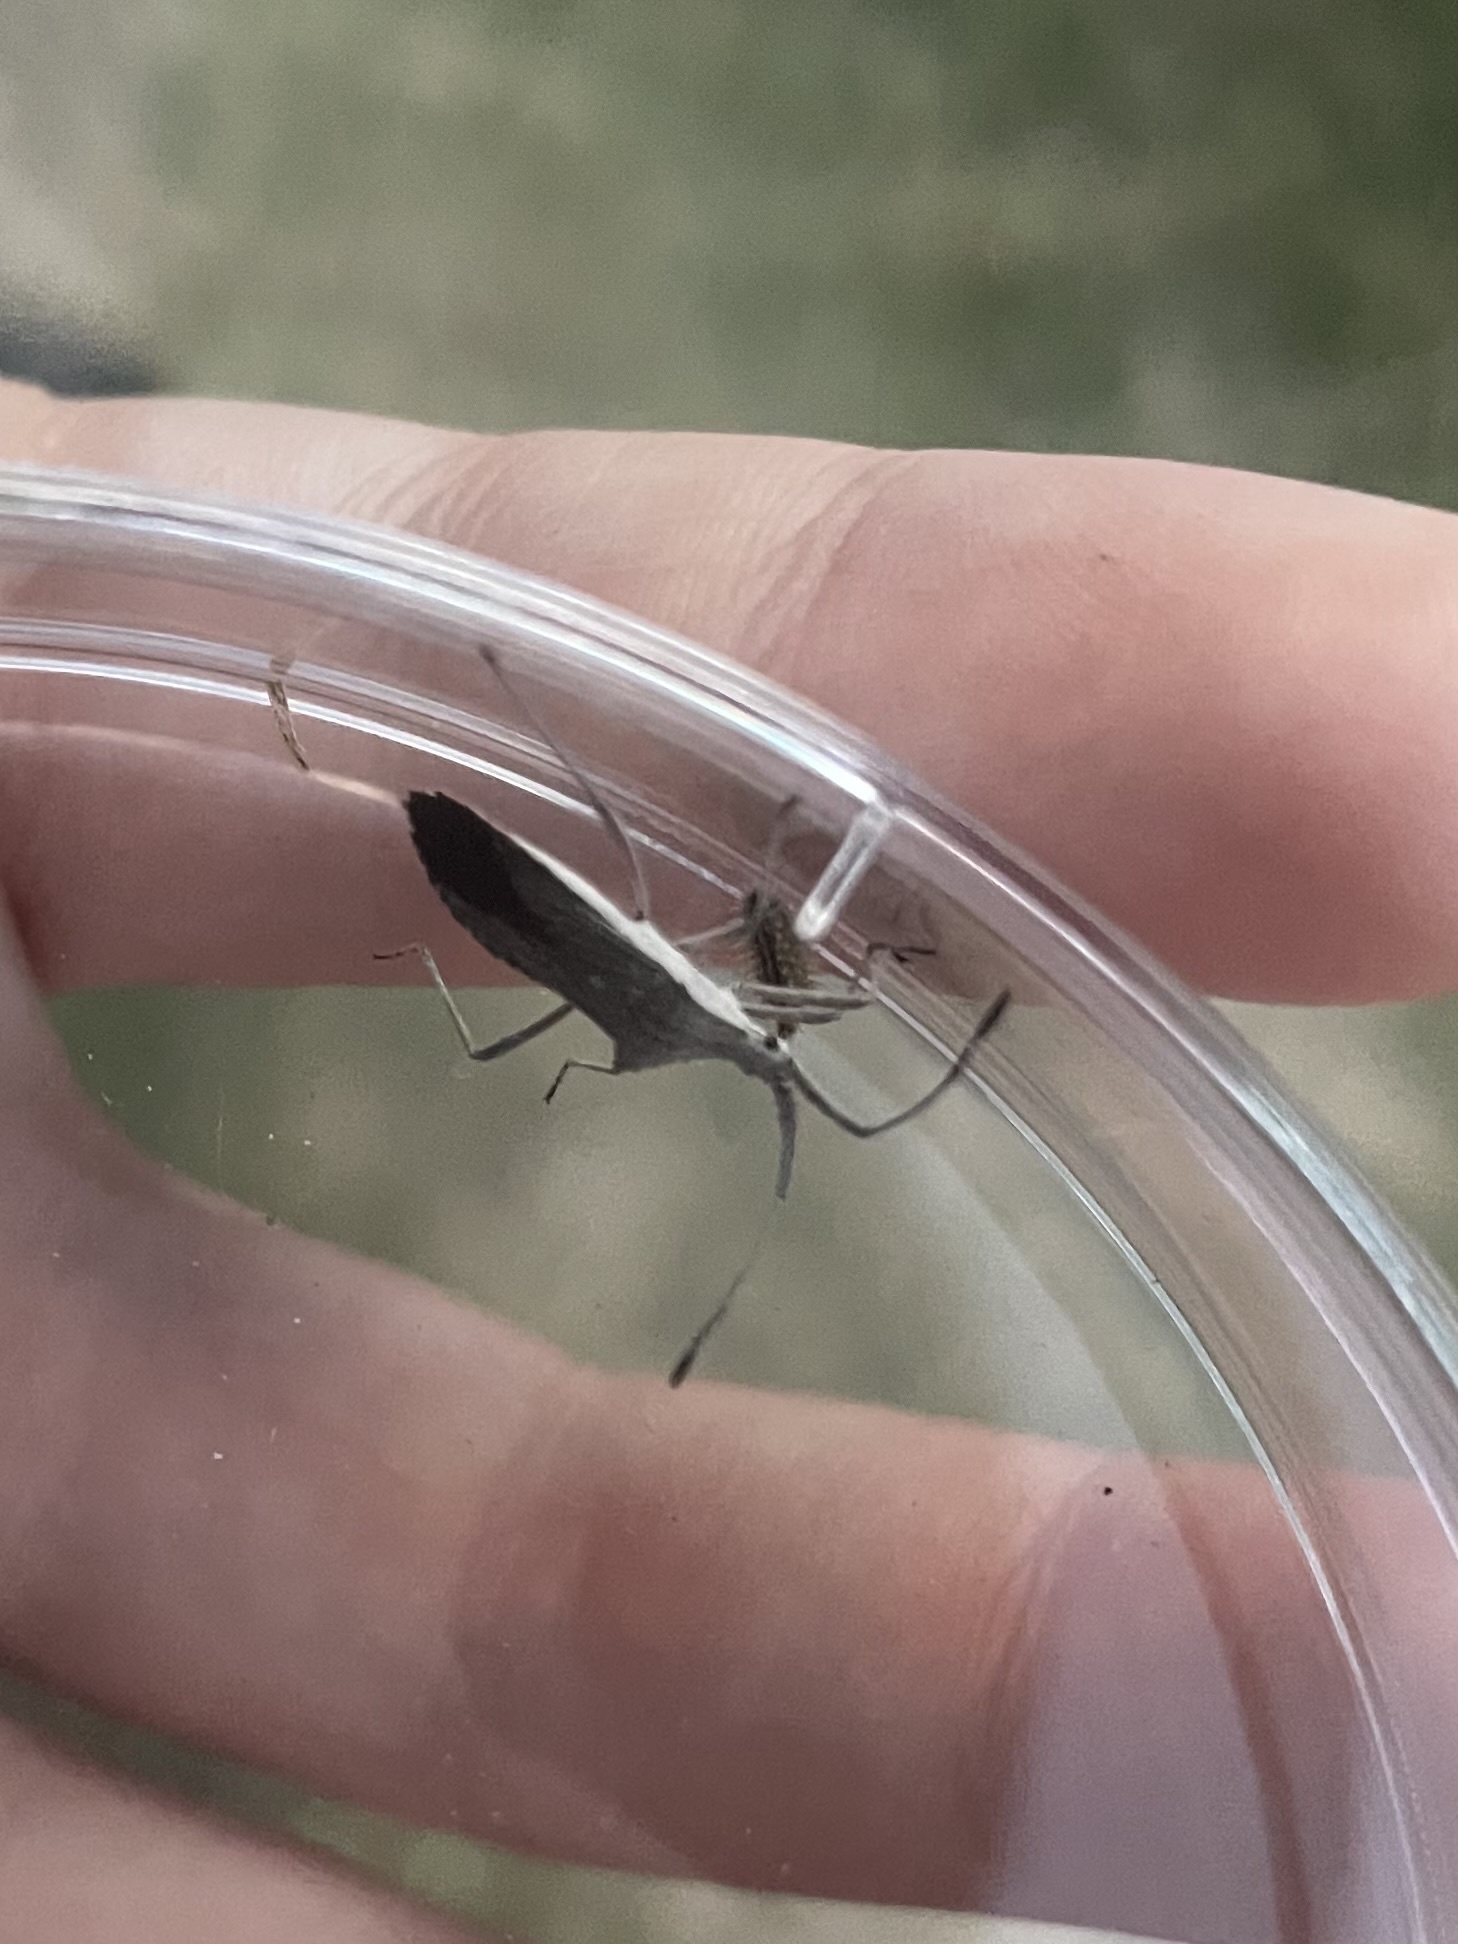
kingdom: Animalia
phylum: Arthropoda
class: Insecta
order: Hemiptera
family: Coreidae
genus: Chariesterus
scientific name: Chariesterus antennator
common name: Flat horned coreid
